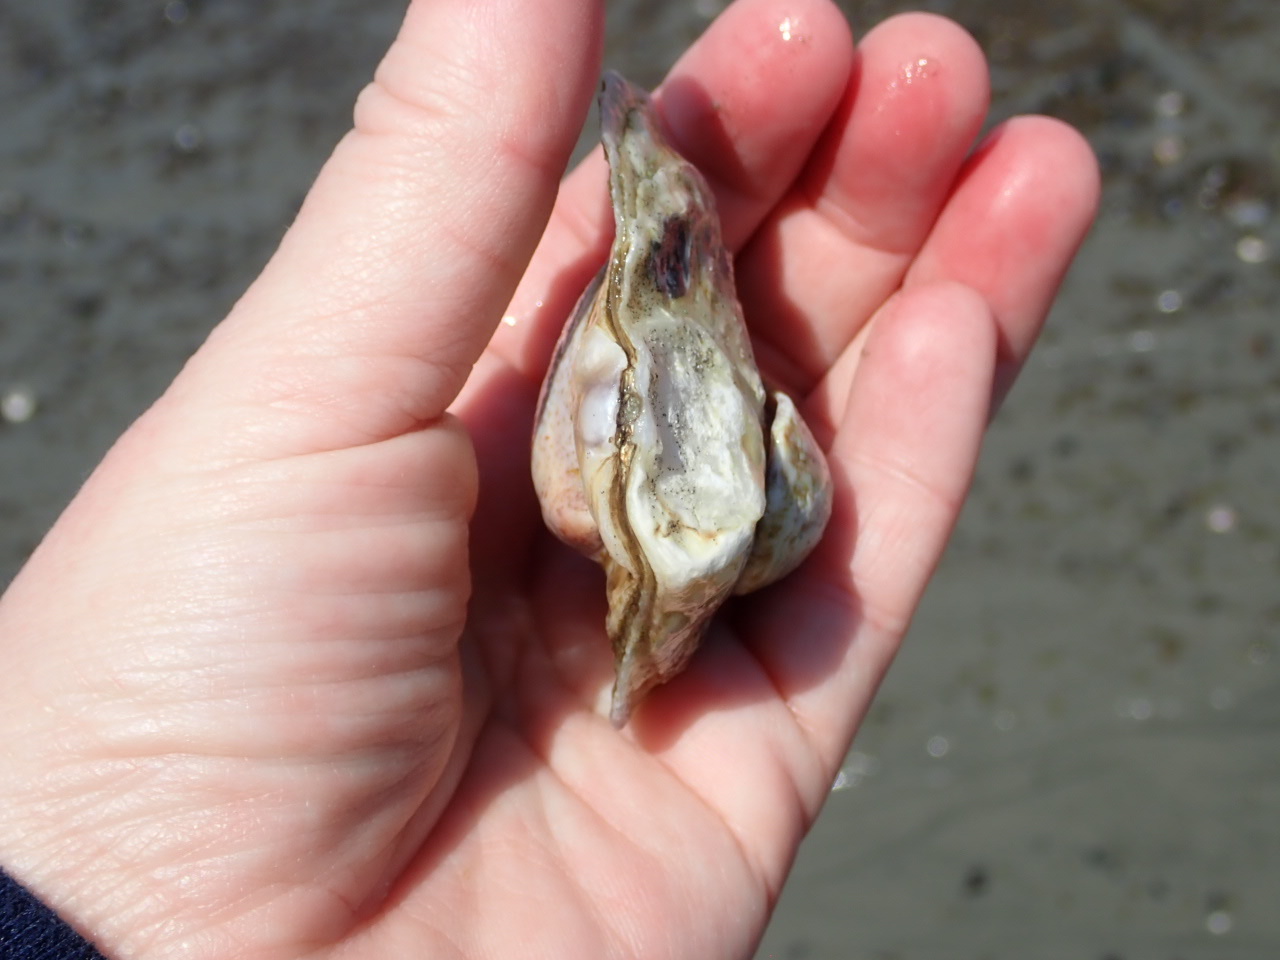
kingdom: Animalia
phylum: Mollusca
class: Bivalvia
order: Ostreida
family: Ostreidae
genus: Ostrea
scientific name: Ostrea edulis
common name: Flat oyster
